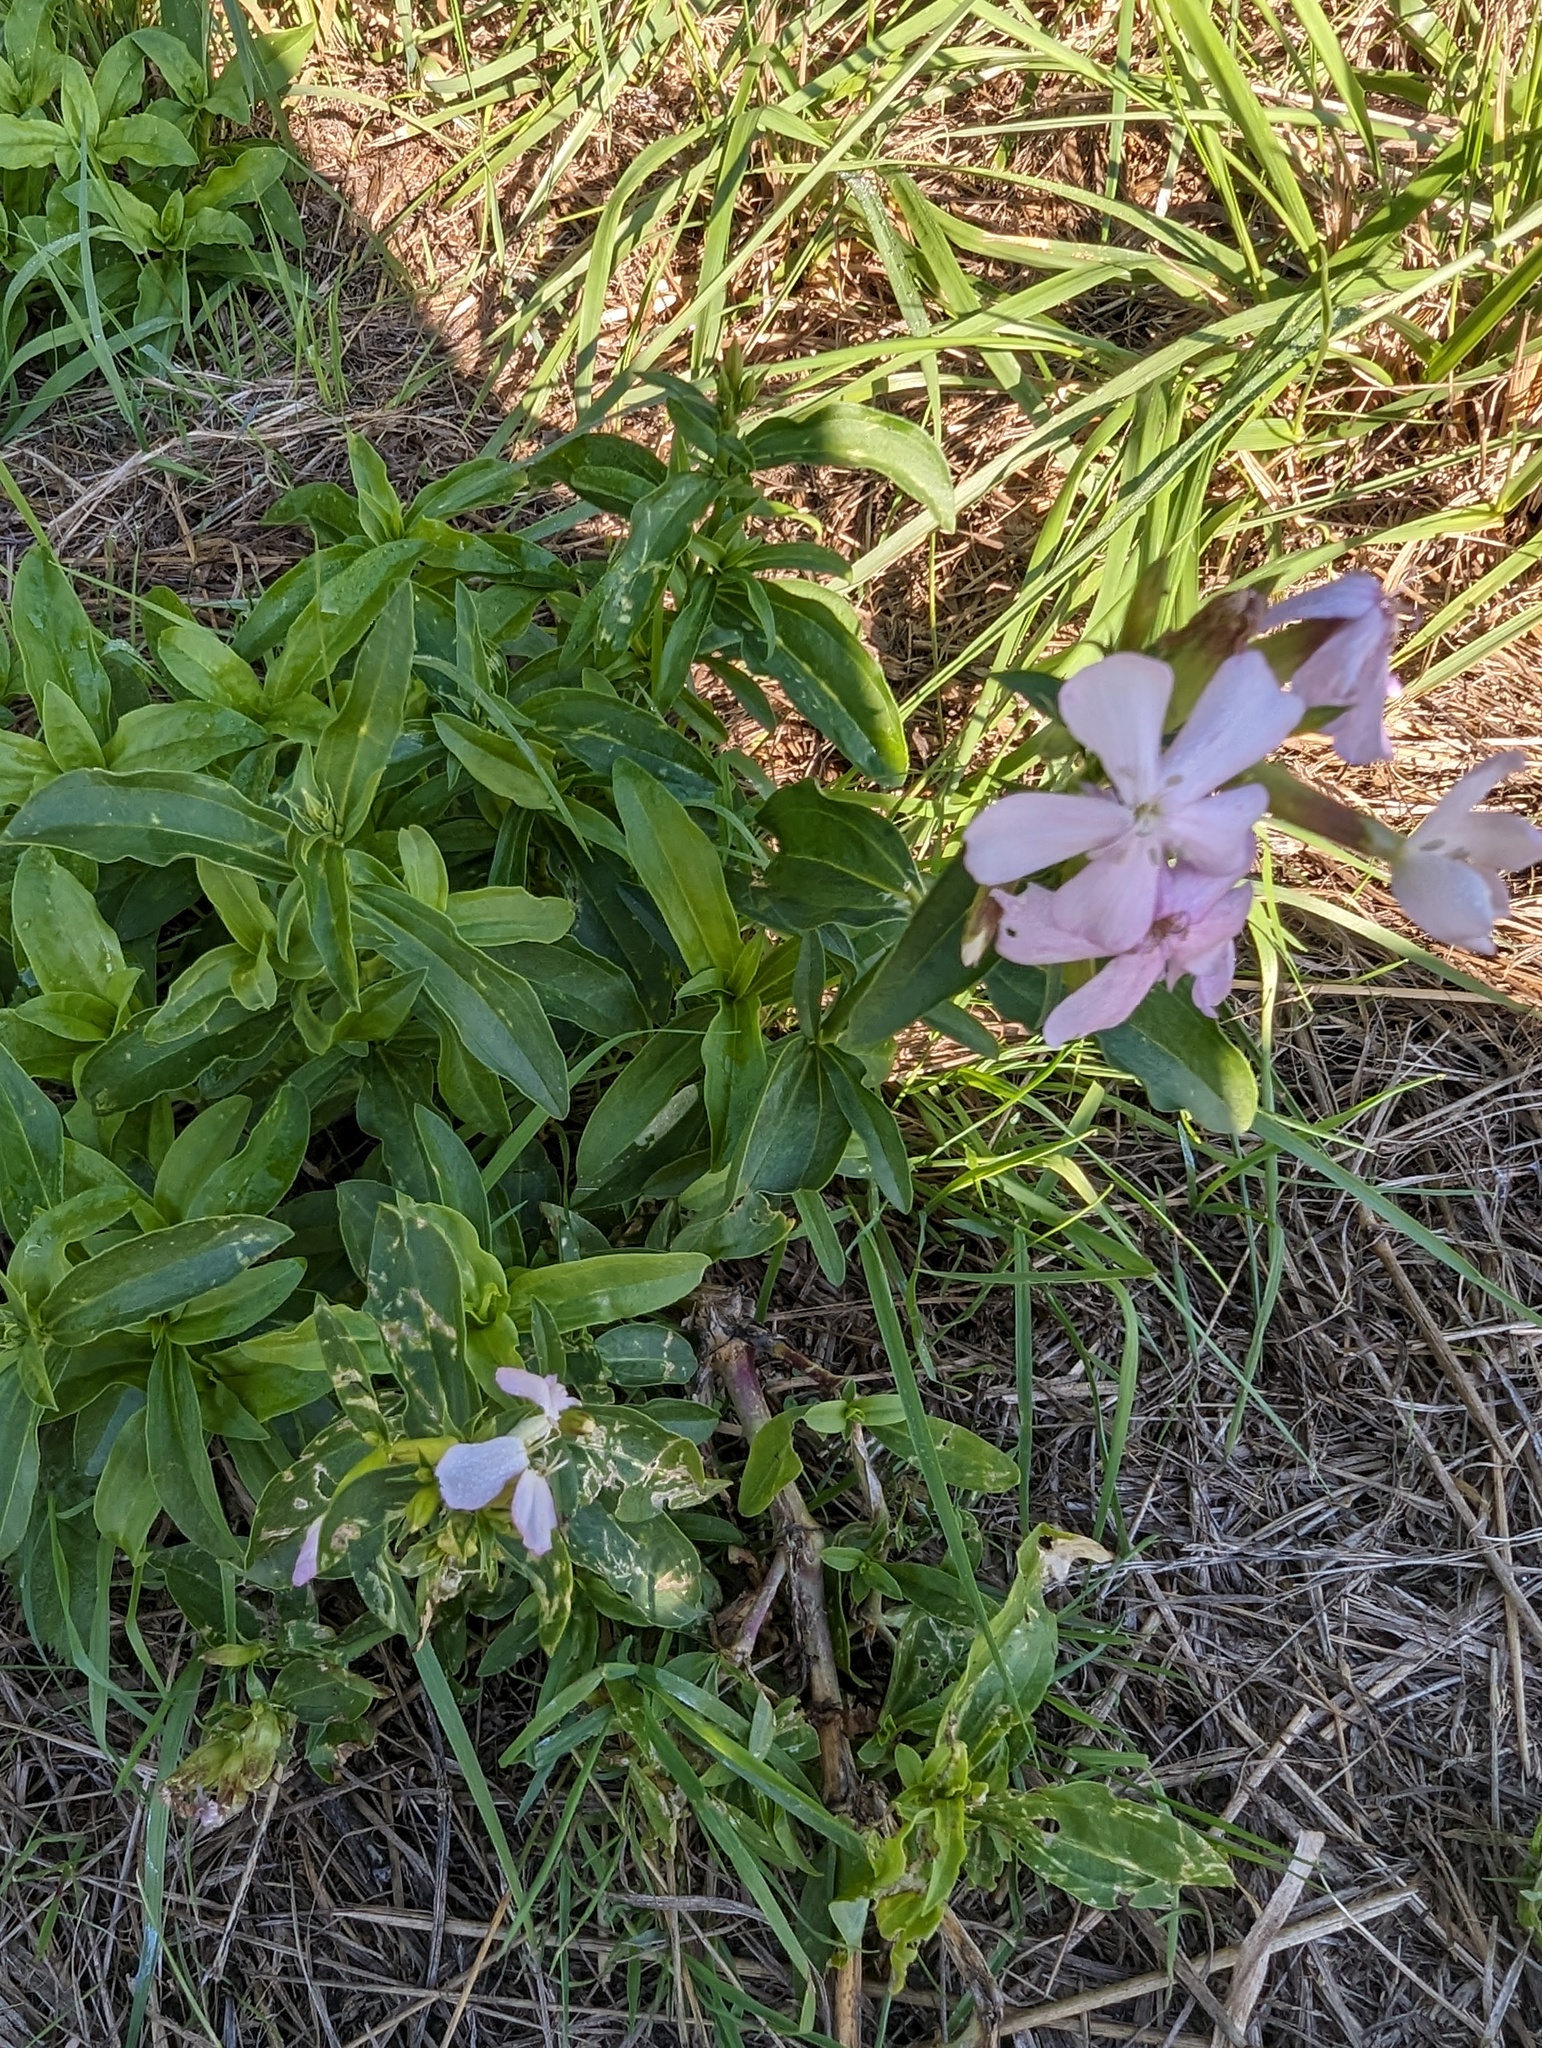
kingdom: Plantae
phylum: Tracheophyta
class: Magnoliopsida
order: Caryophyllales
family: Caryophyllaceae
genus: Saponaria
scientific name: Saponaria officinalis
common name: Soapwort
